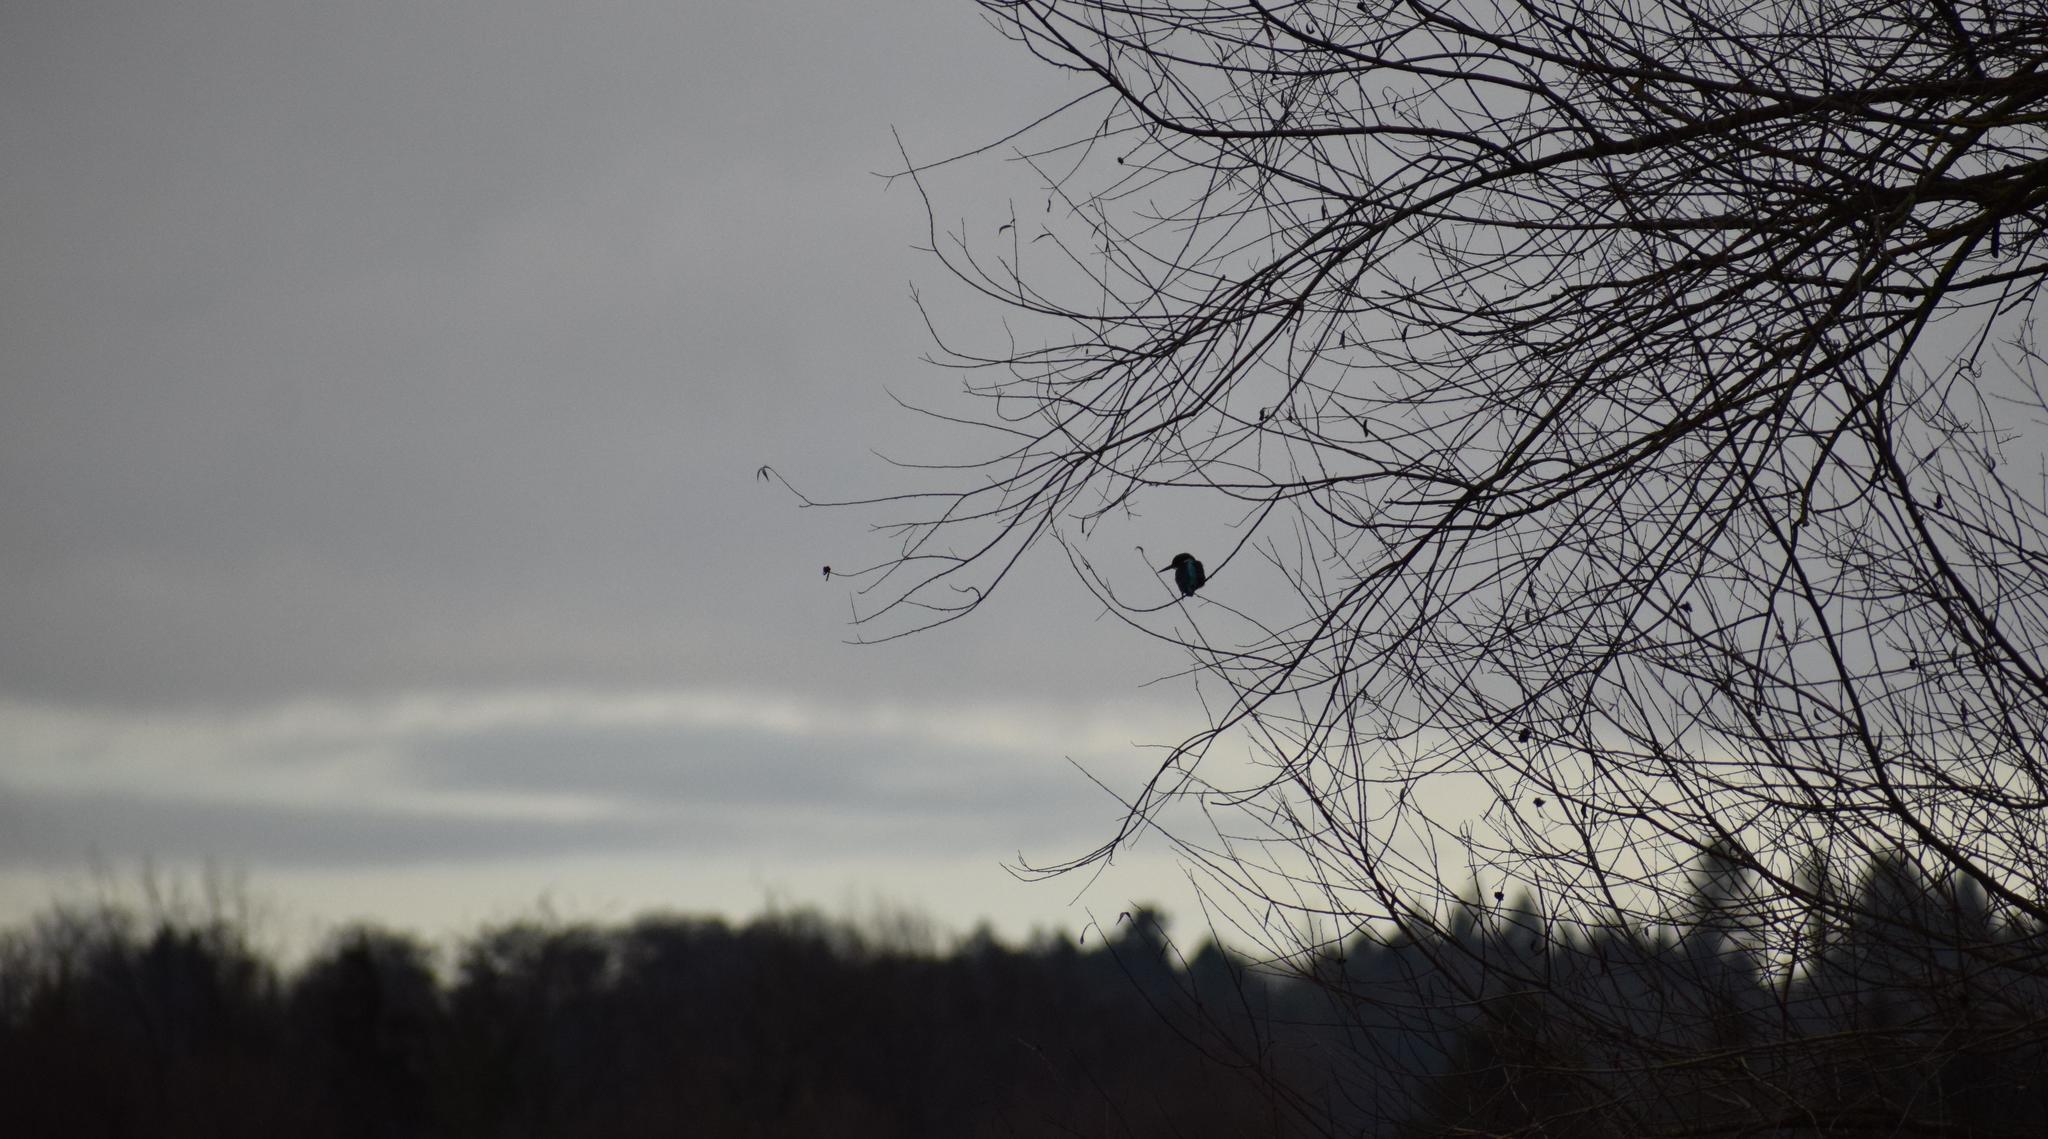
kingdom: Animalia
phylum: Chordata
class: Aves
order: Coraciiformes
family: Alcedinidae
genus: Alcedo
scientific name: Alcedo atthis
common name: Common kingfisher
